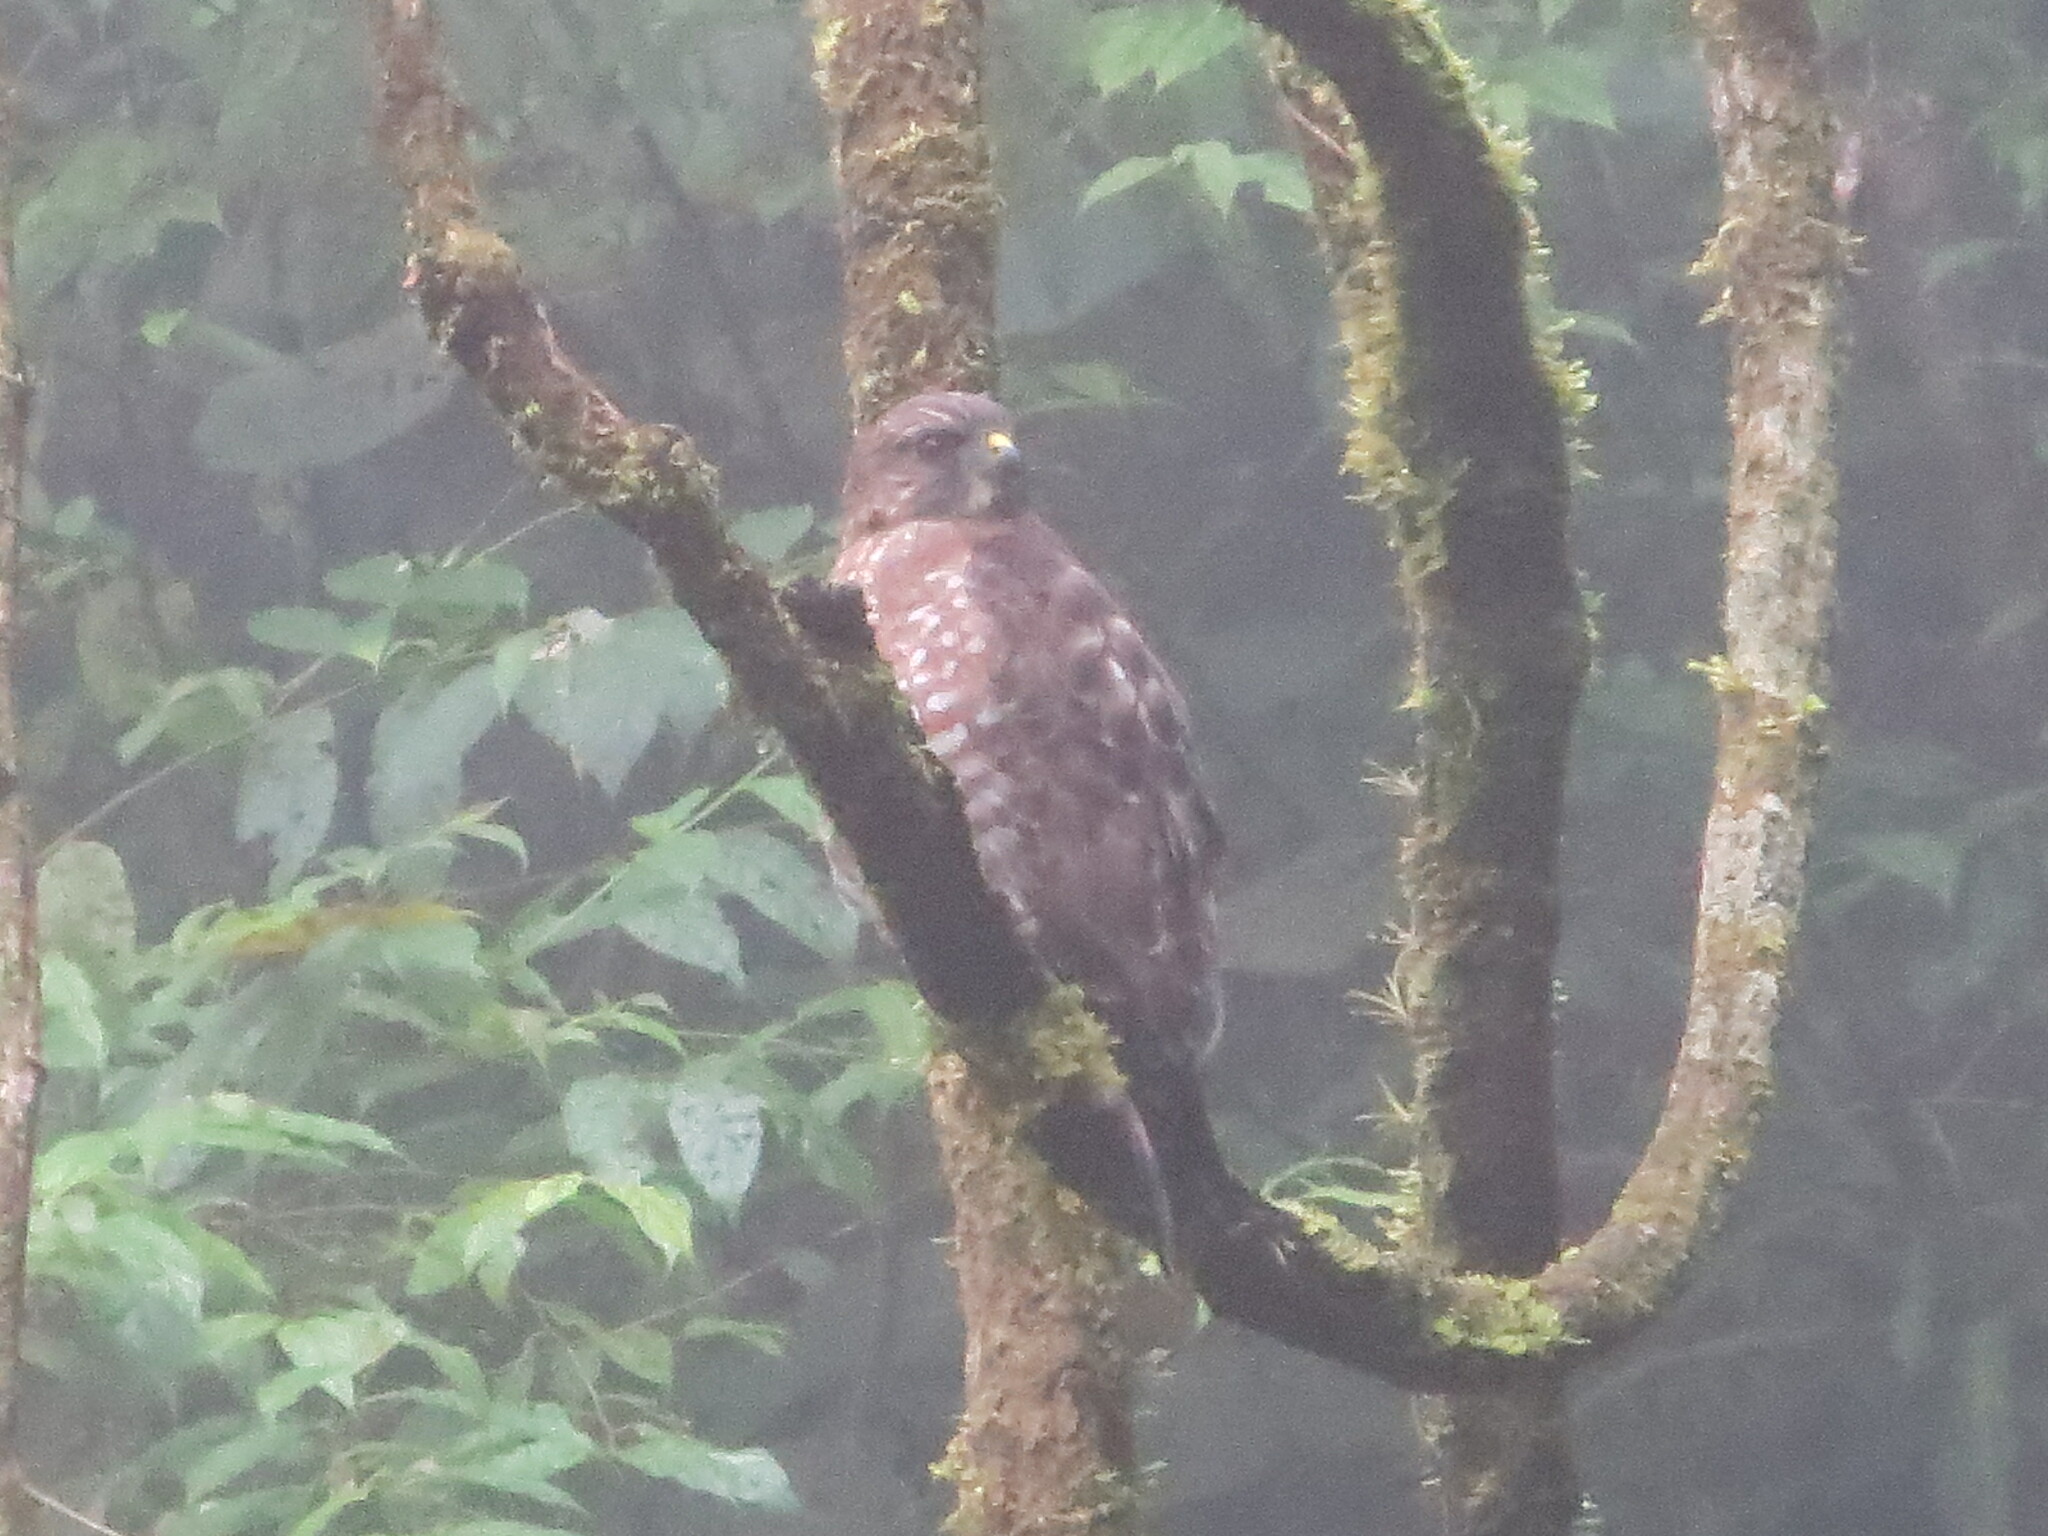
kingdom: Animalia
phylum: Chordata
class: Aves
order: Accipitriformes
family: Accipitridae
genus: Buteo
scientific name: Buteo platypterus
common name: Broad-winged hawk
